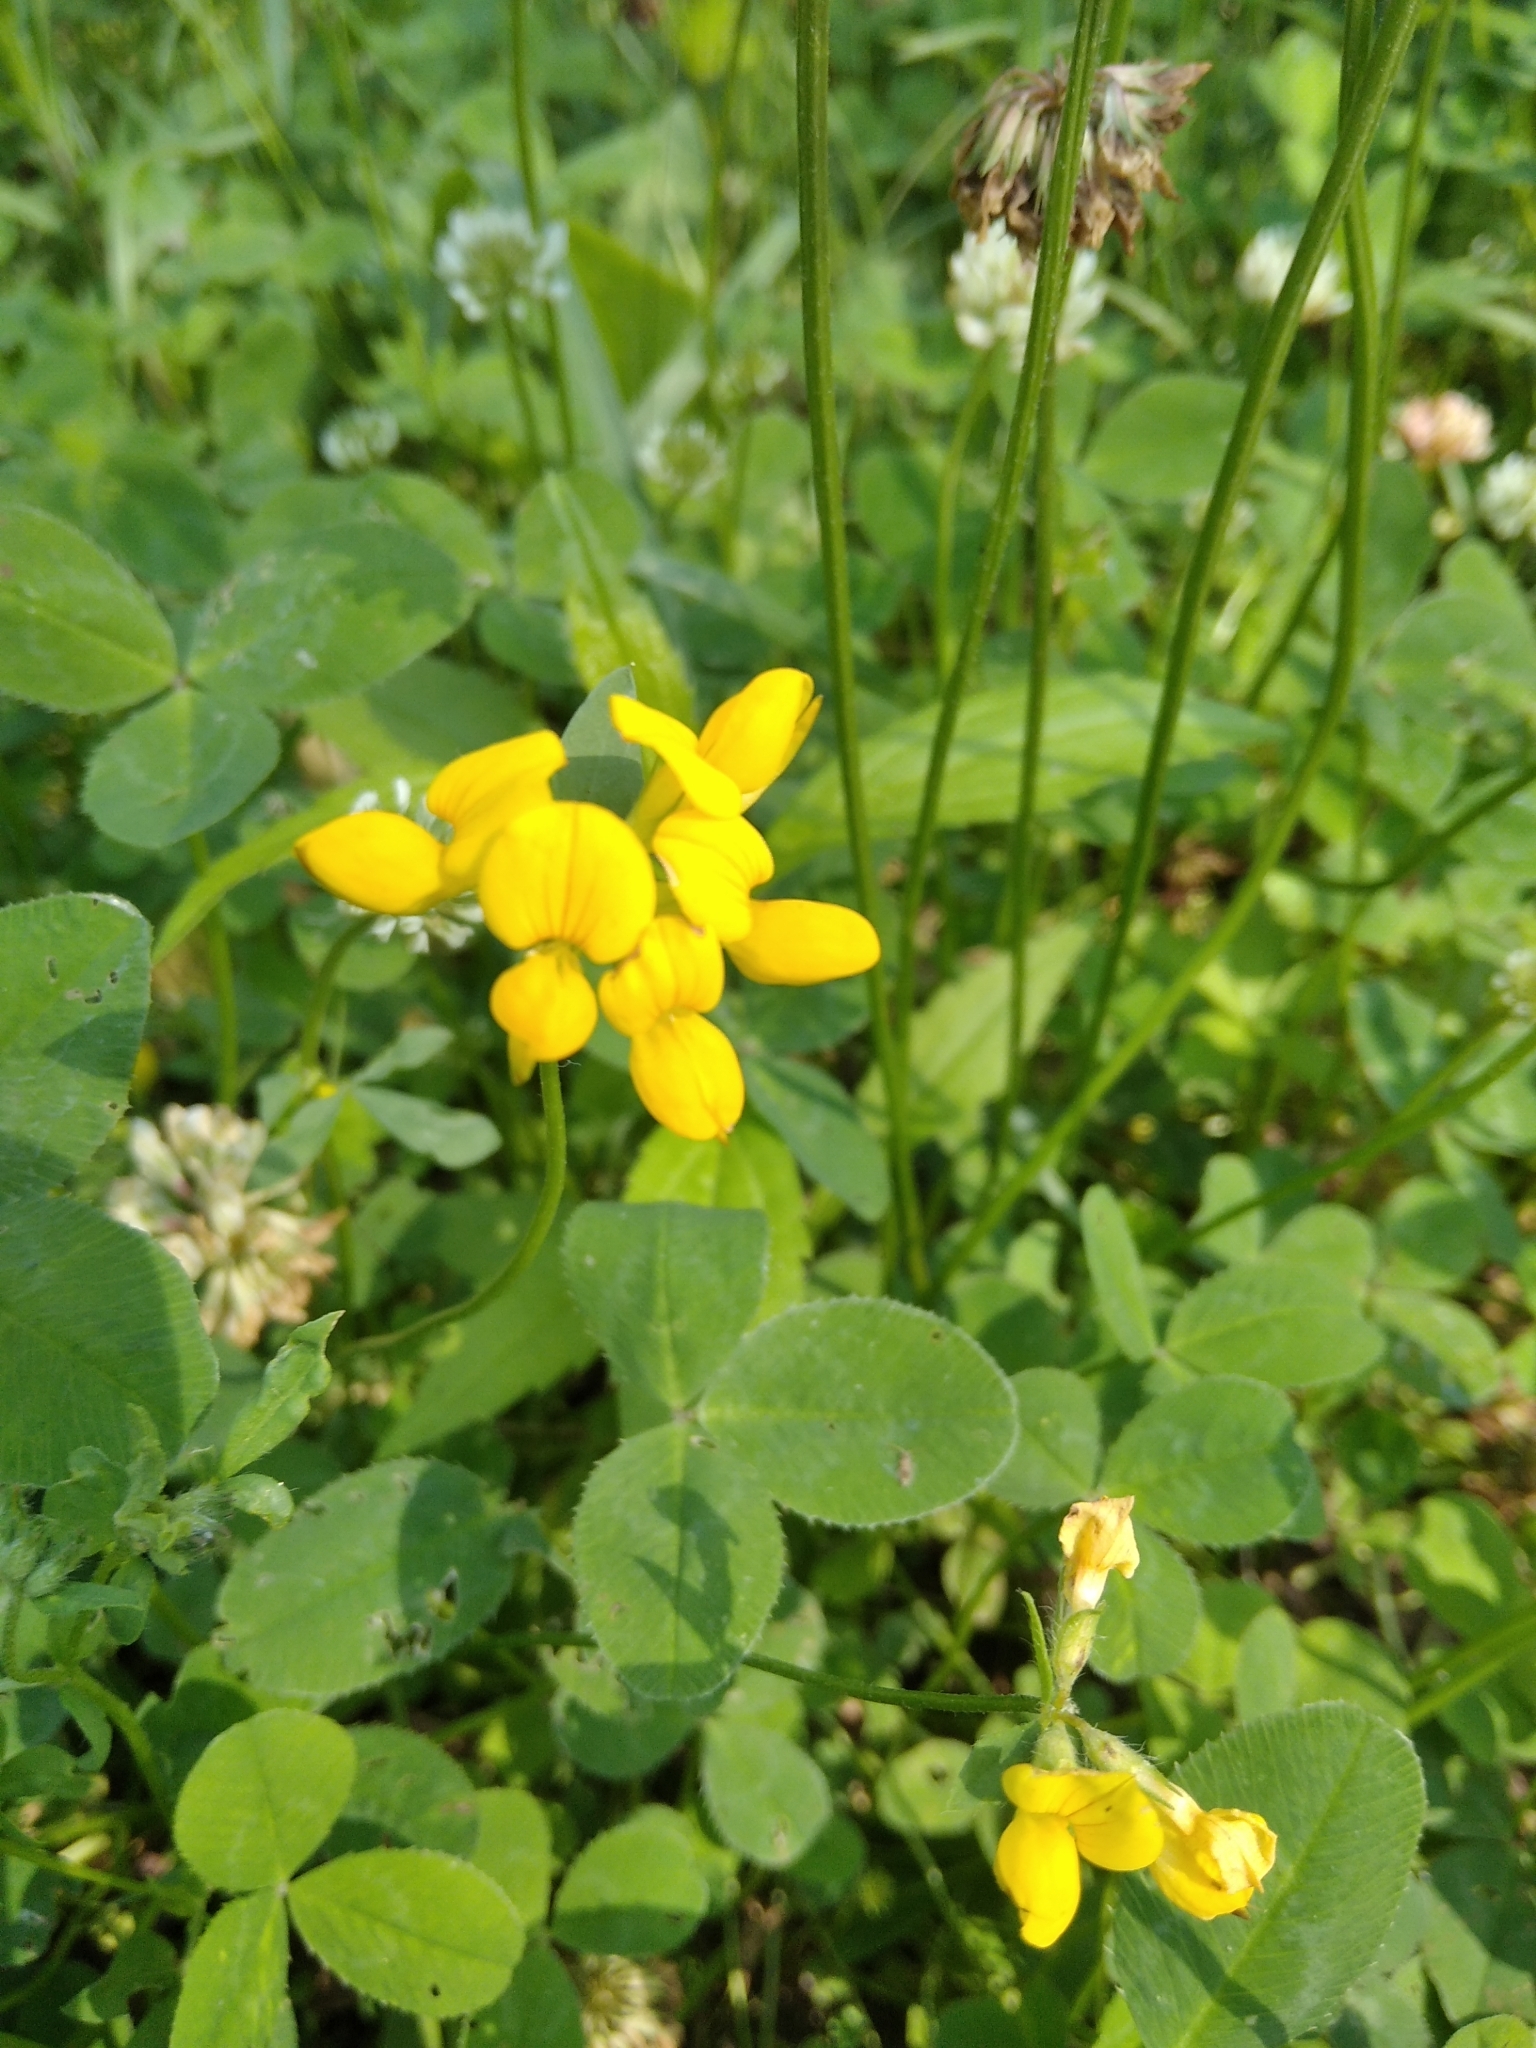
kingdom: Plantae
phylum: Tracheophyta
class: Magnoliopsida
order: Fabales
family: Fabaceae
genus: Lotus
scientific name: Lotus corniculatus
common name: Common bird's-foot-trefoil
